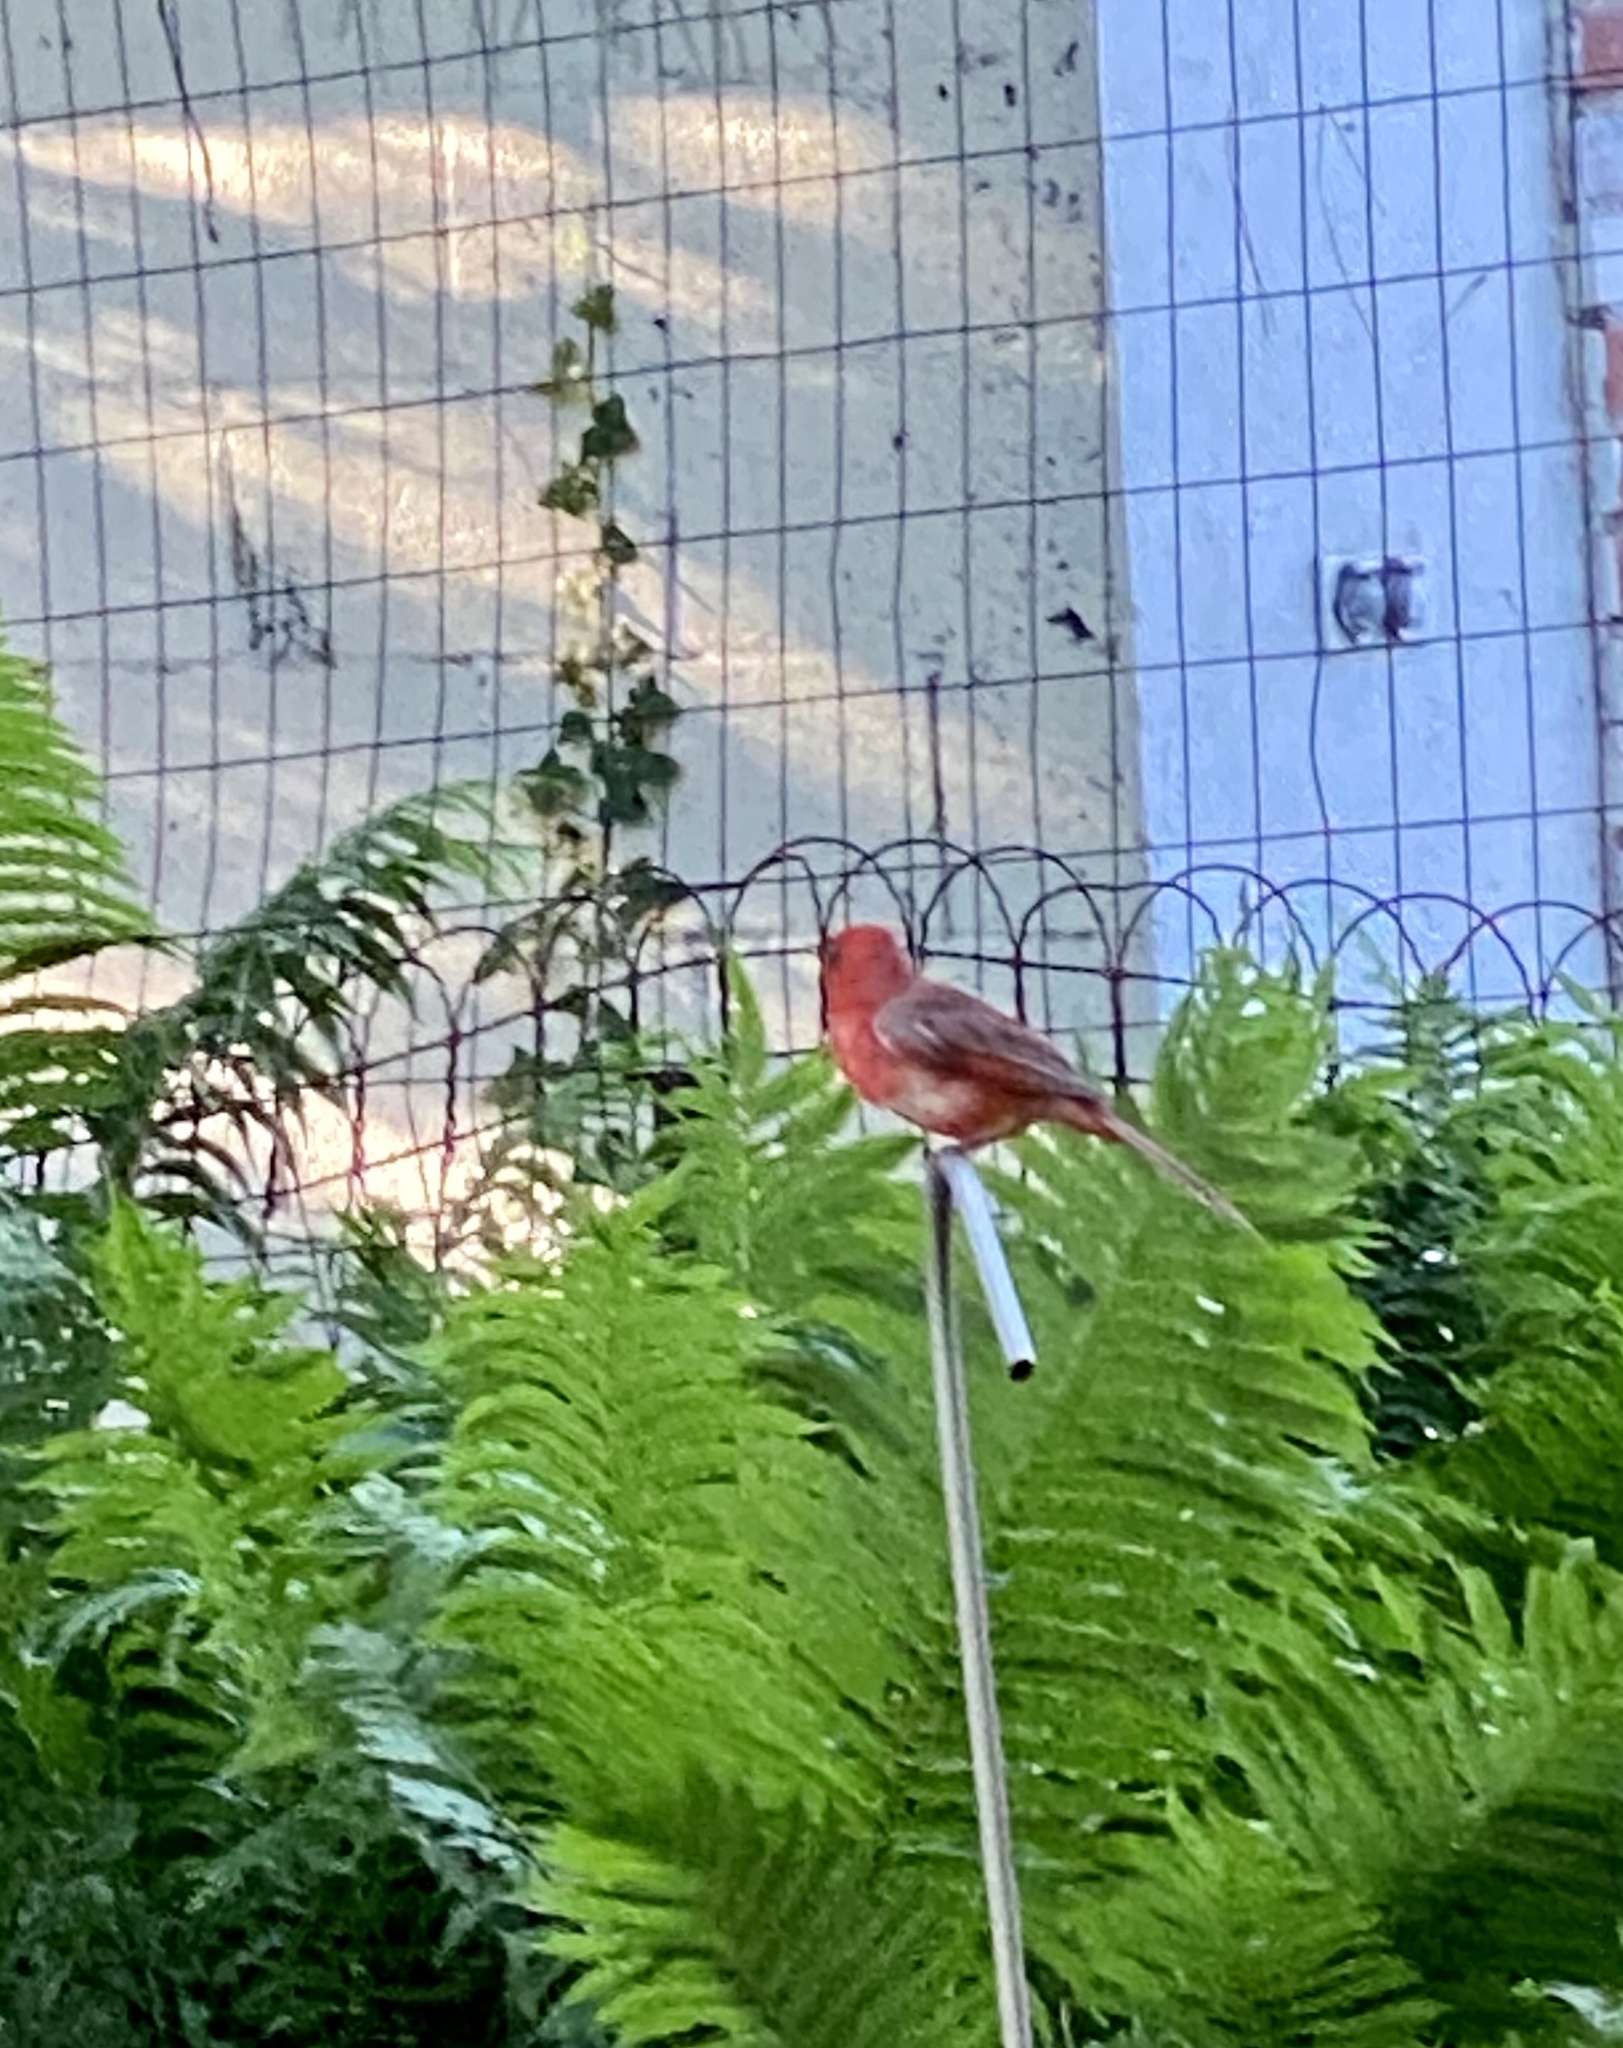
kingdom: Animalia
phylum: Chordata
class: Aves
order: Passeriformes
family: Cardinalidae
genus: Cardinalis
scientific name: Cardinalis cardinalis
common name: Northern cardinal
